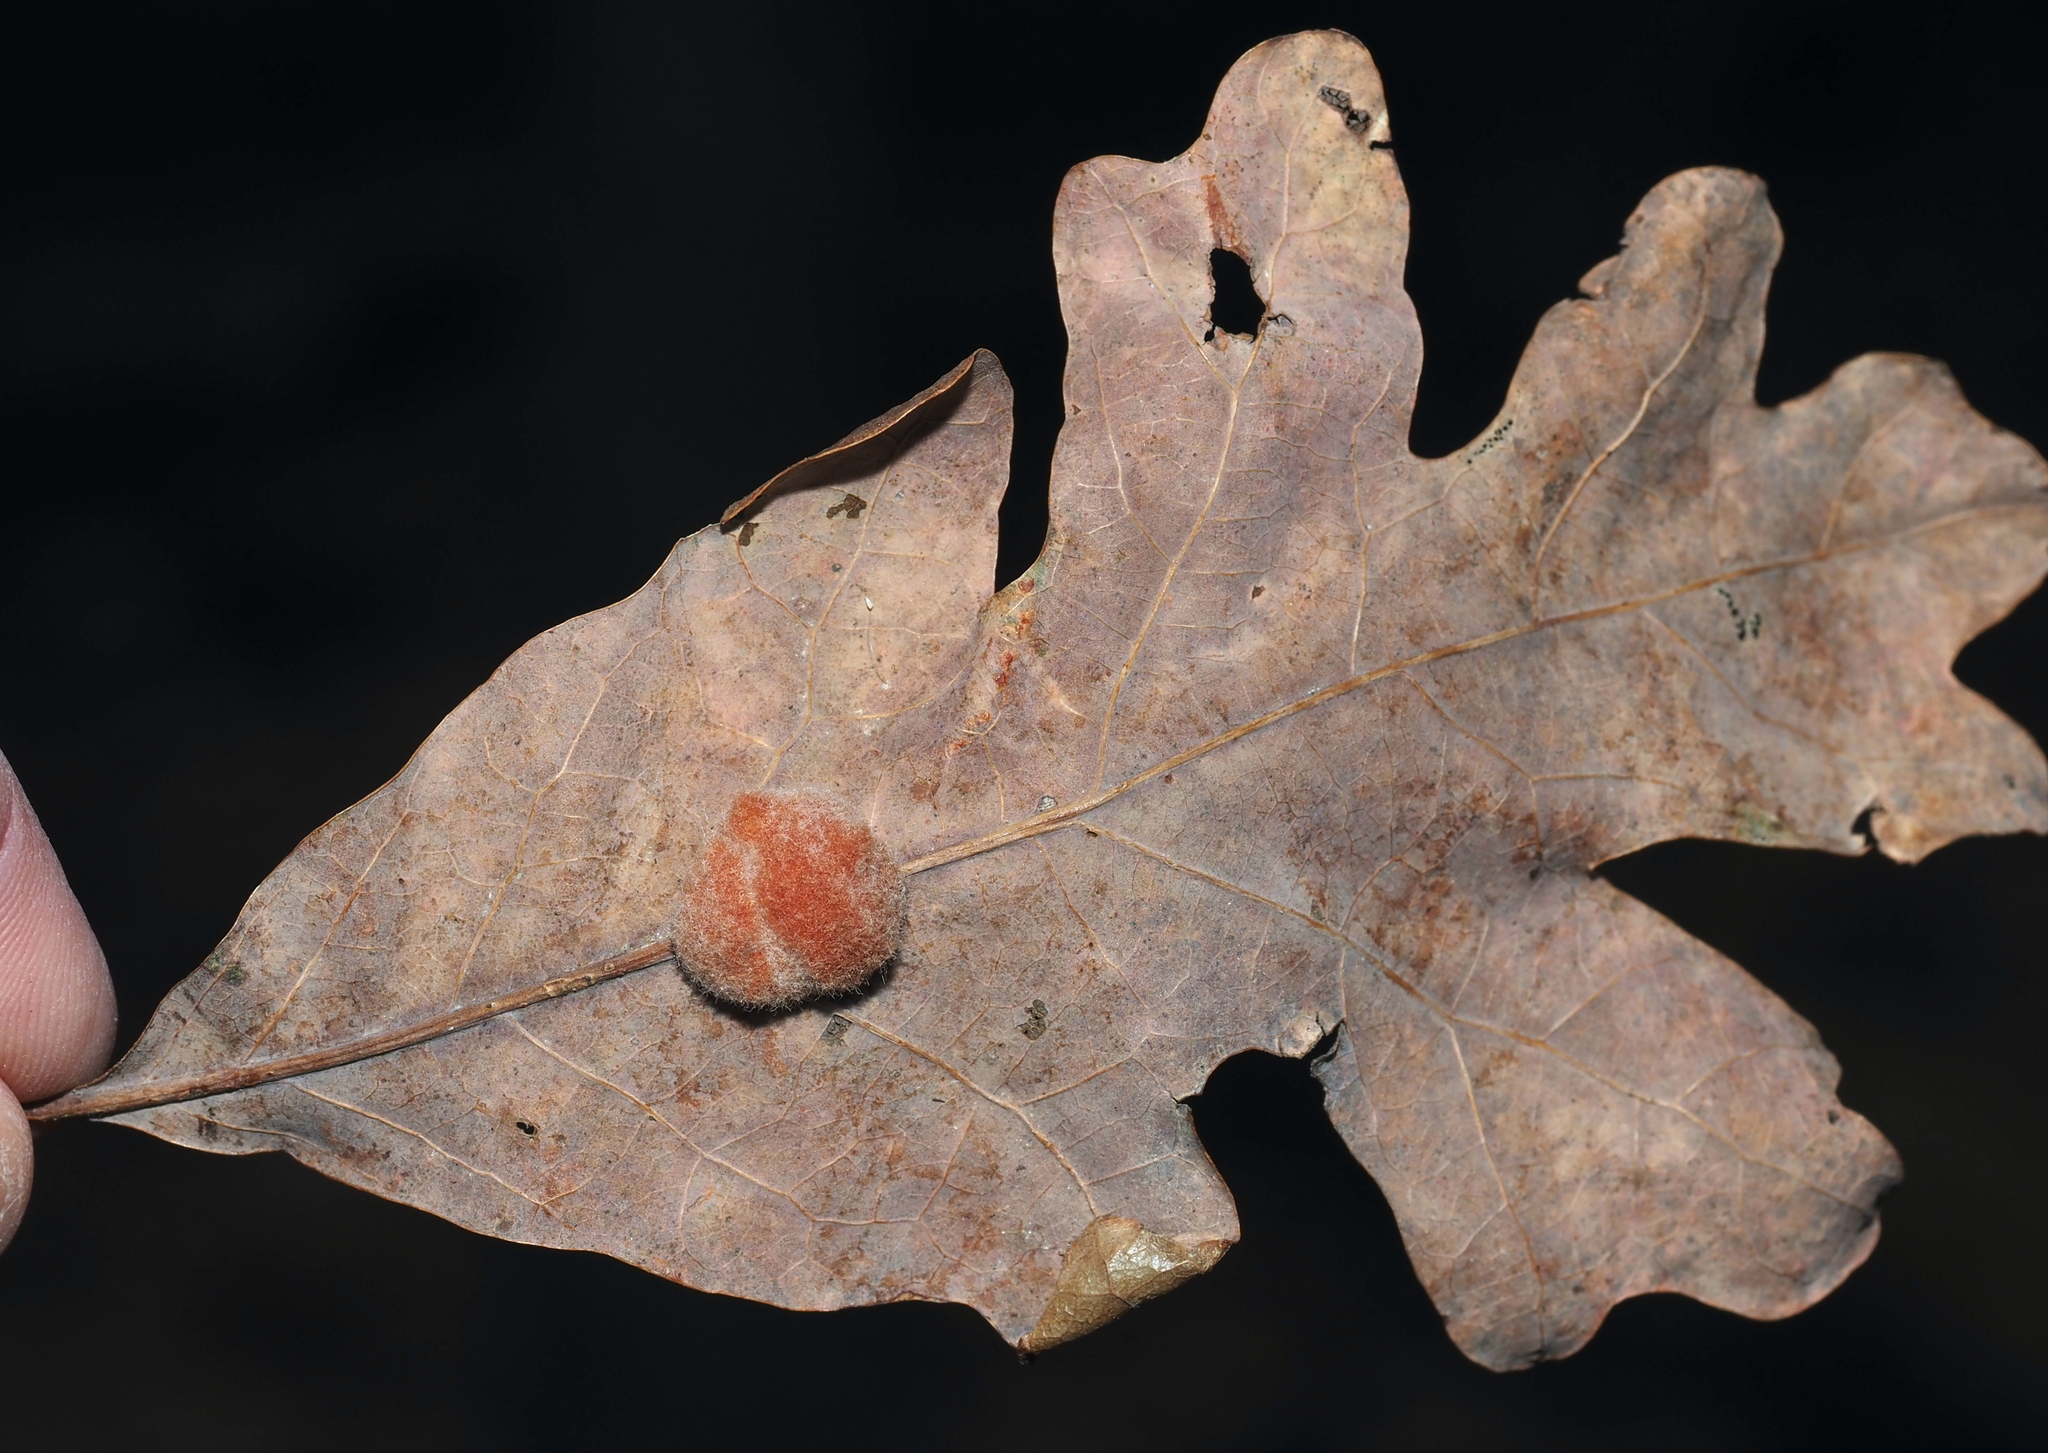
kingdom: Animalia
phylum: Arthropoda
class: Insecta
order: Hymenoptera
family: Cynipidae
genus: Andricus
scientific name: Andricus quercusflocci
